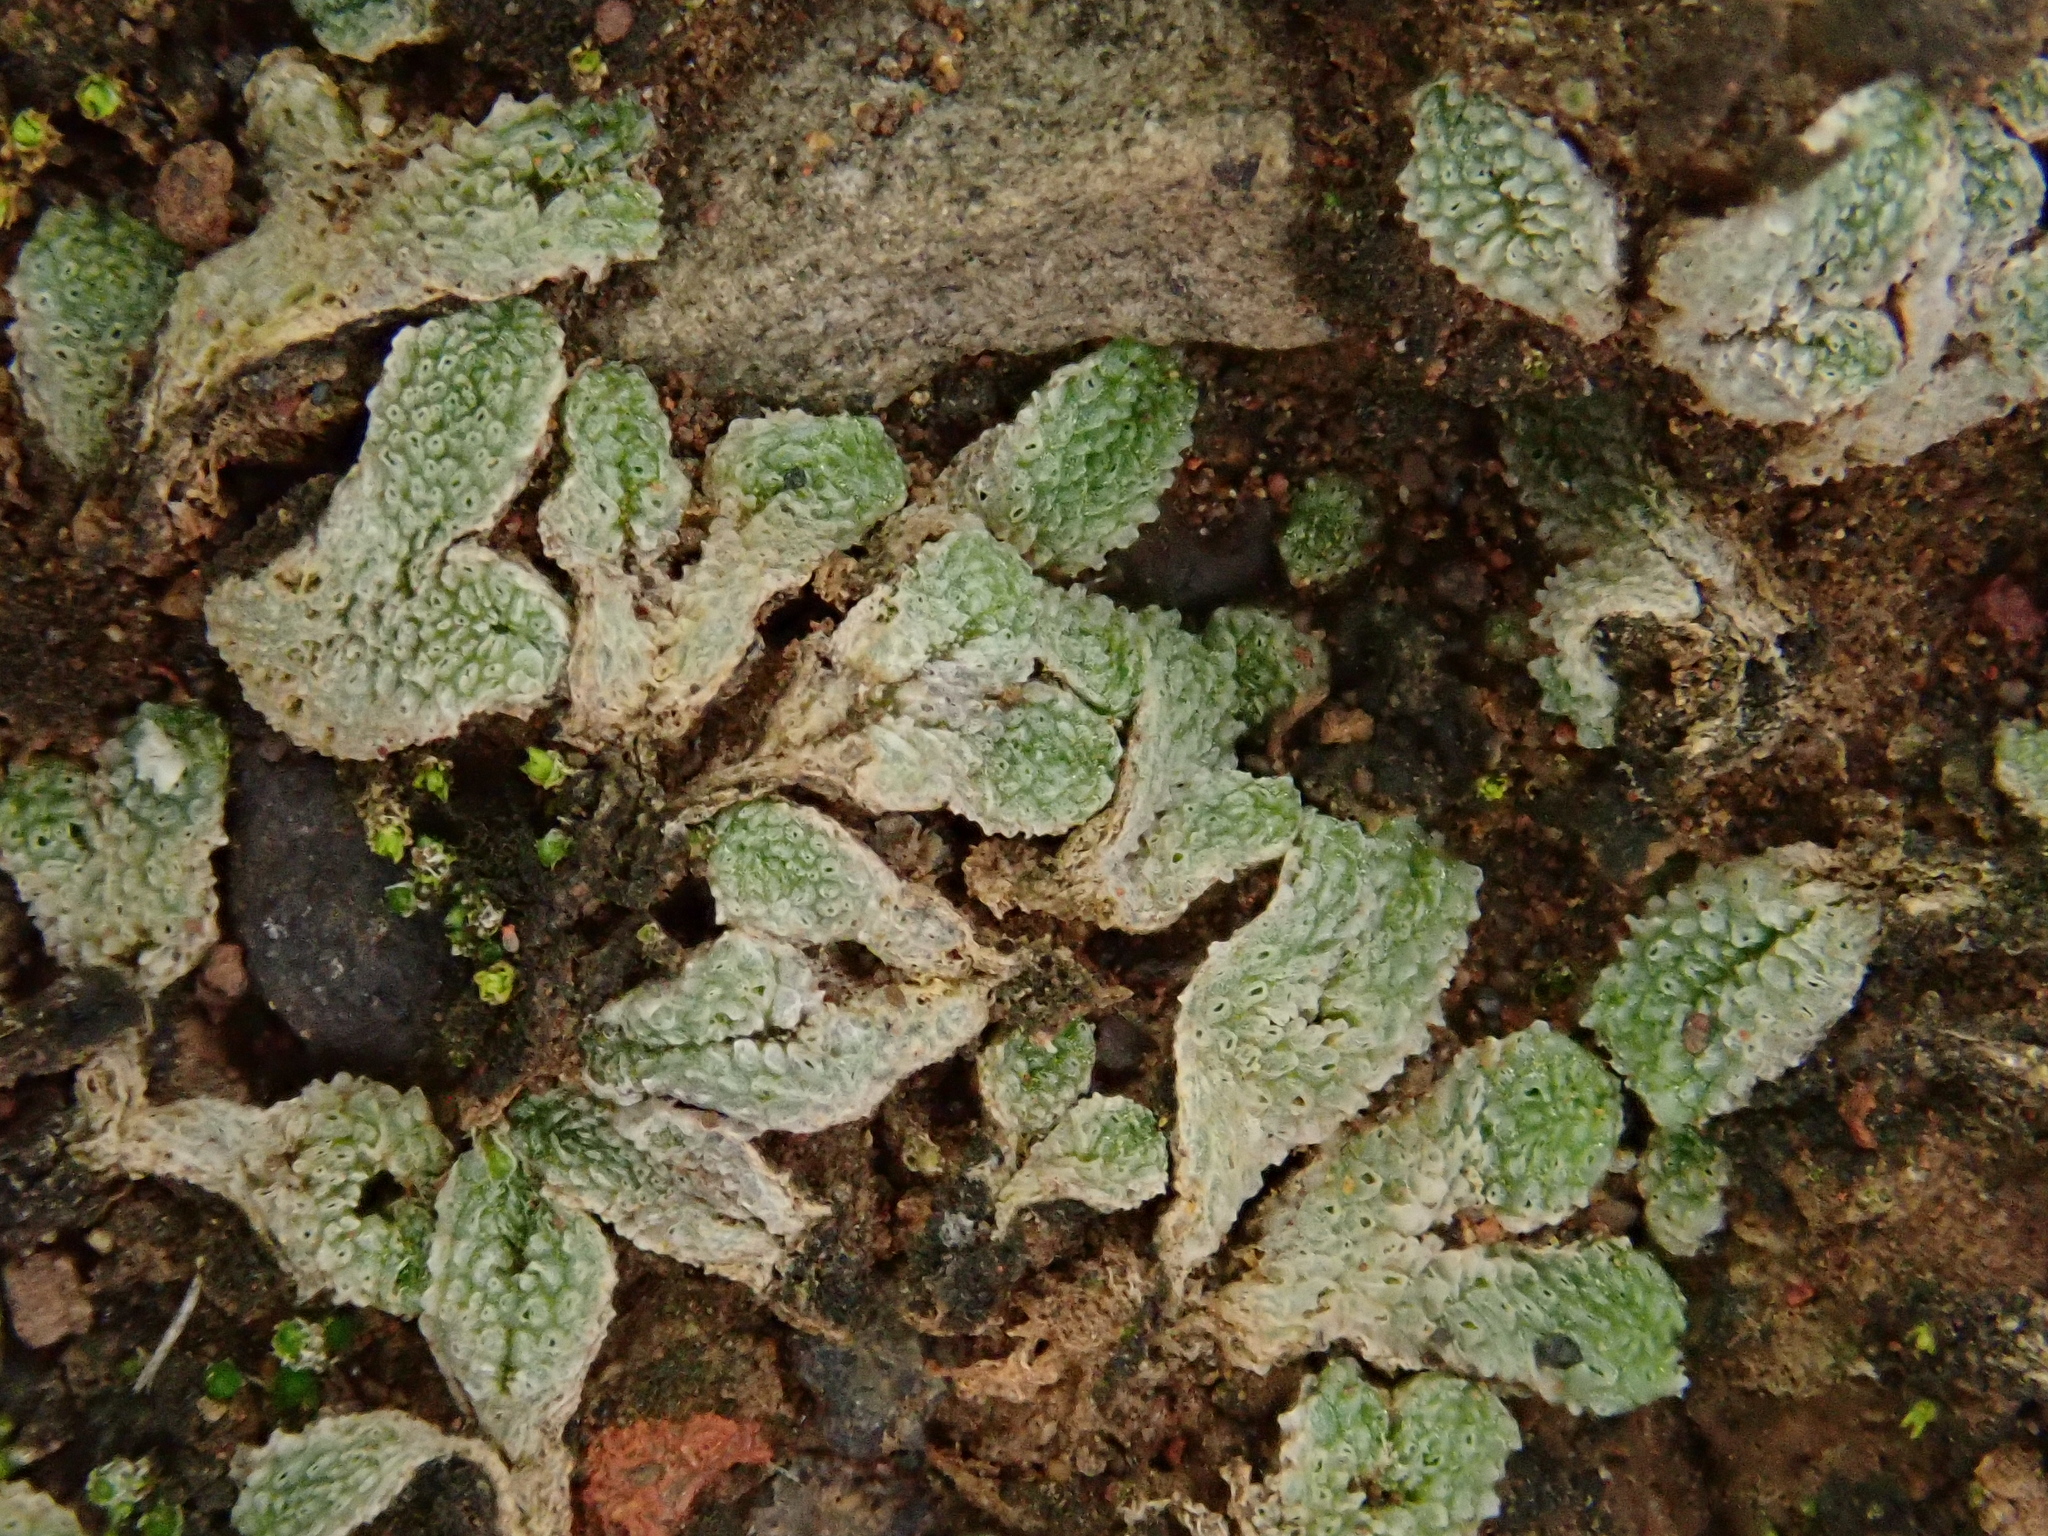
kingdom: Plantae
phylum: Marchantiophyta
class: Marchantiopsida
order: Marchantiales
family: Corsiniaceae
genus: Exormotheca
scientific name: Exormotheca pustulosa
